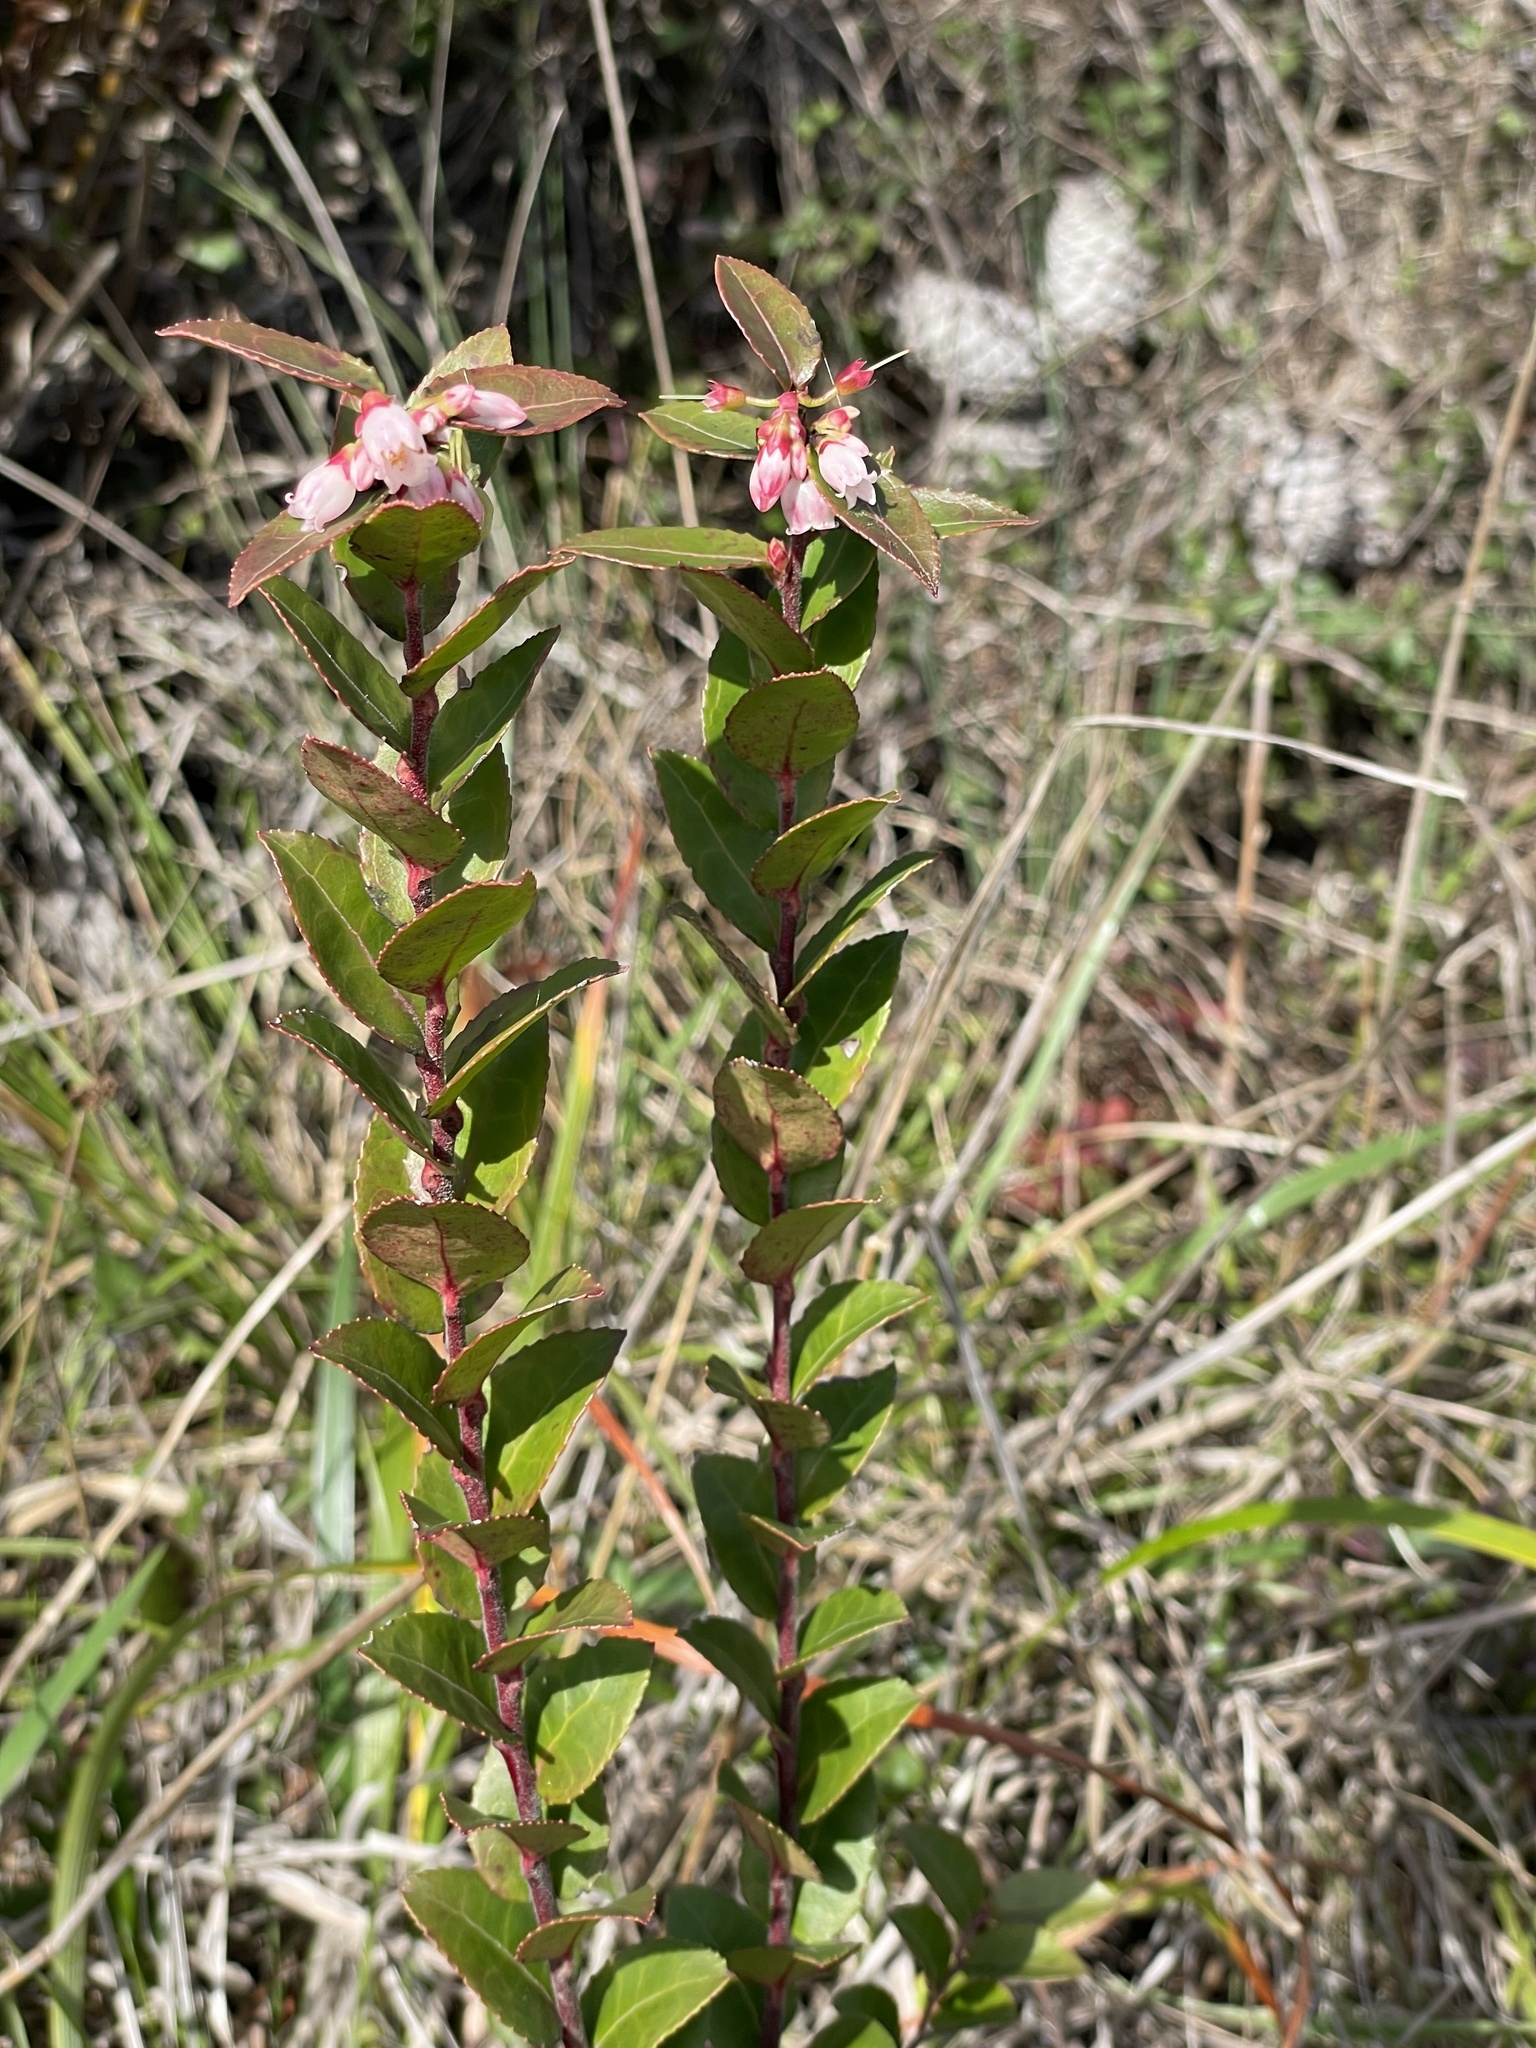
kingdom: Plantae
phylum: Tracheophyta
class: Magnoliopsida
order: Ericales
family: Ericaceae
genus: Vaccinium
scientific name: Vaccinium ovatum
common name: California-huckleberry
